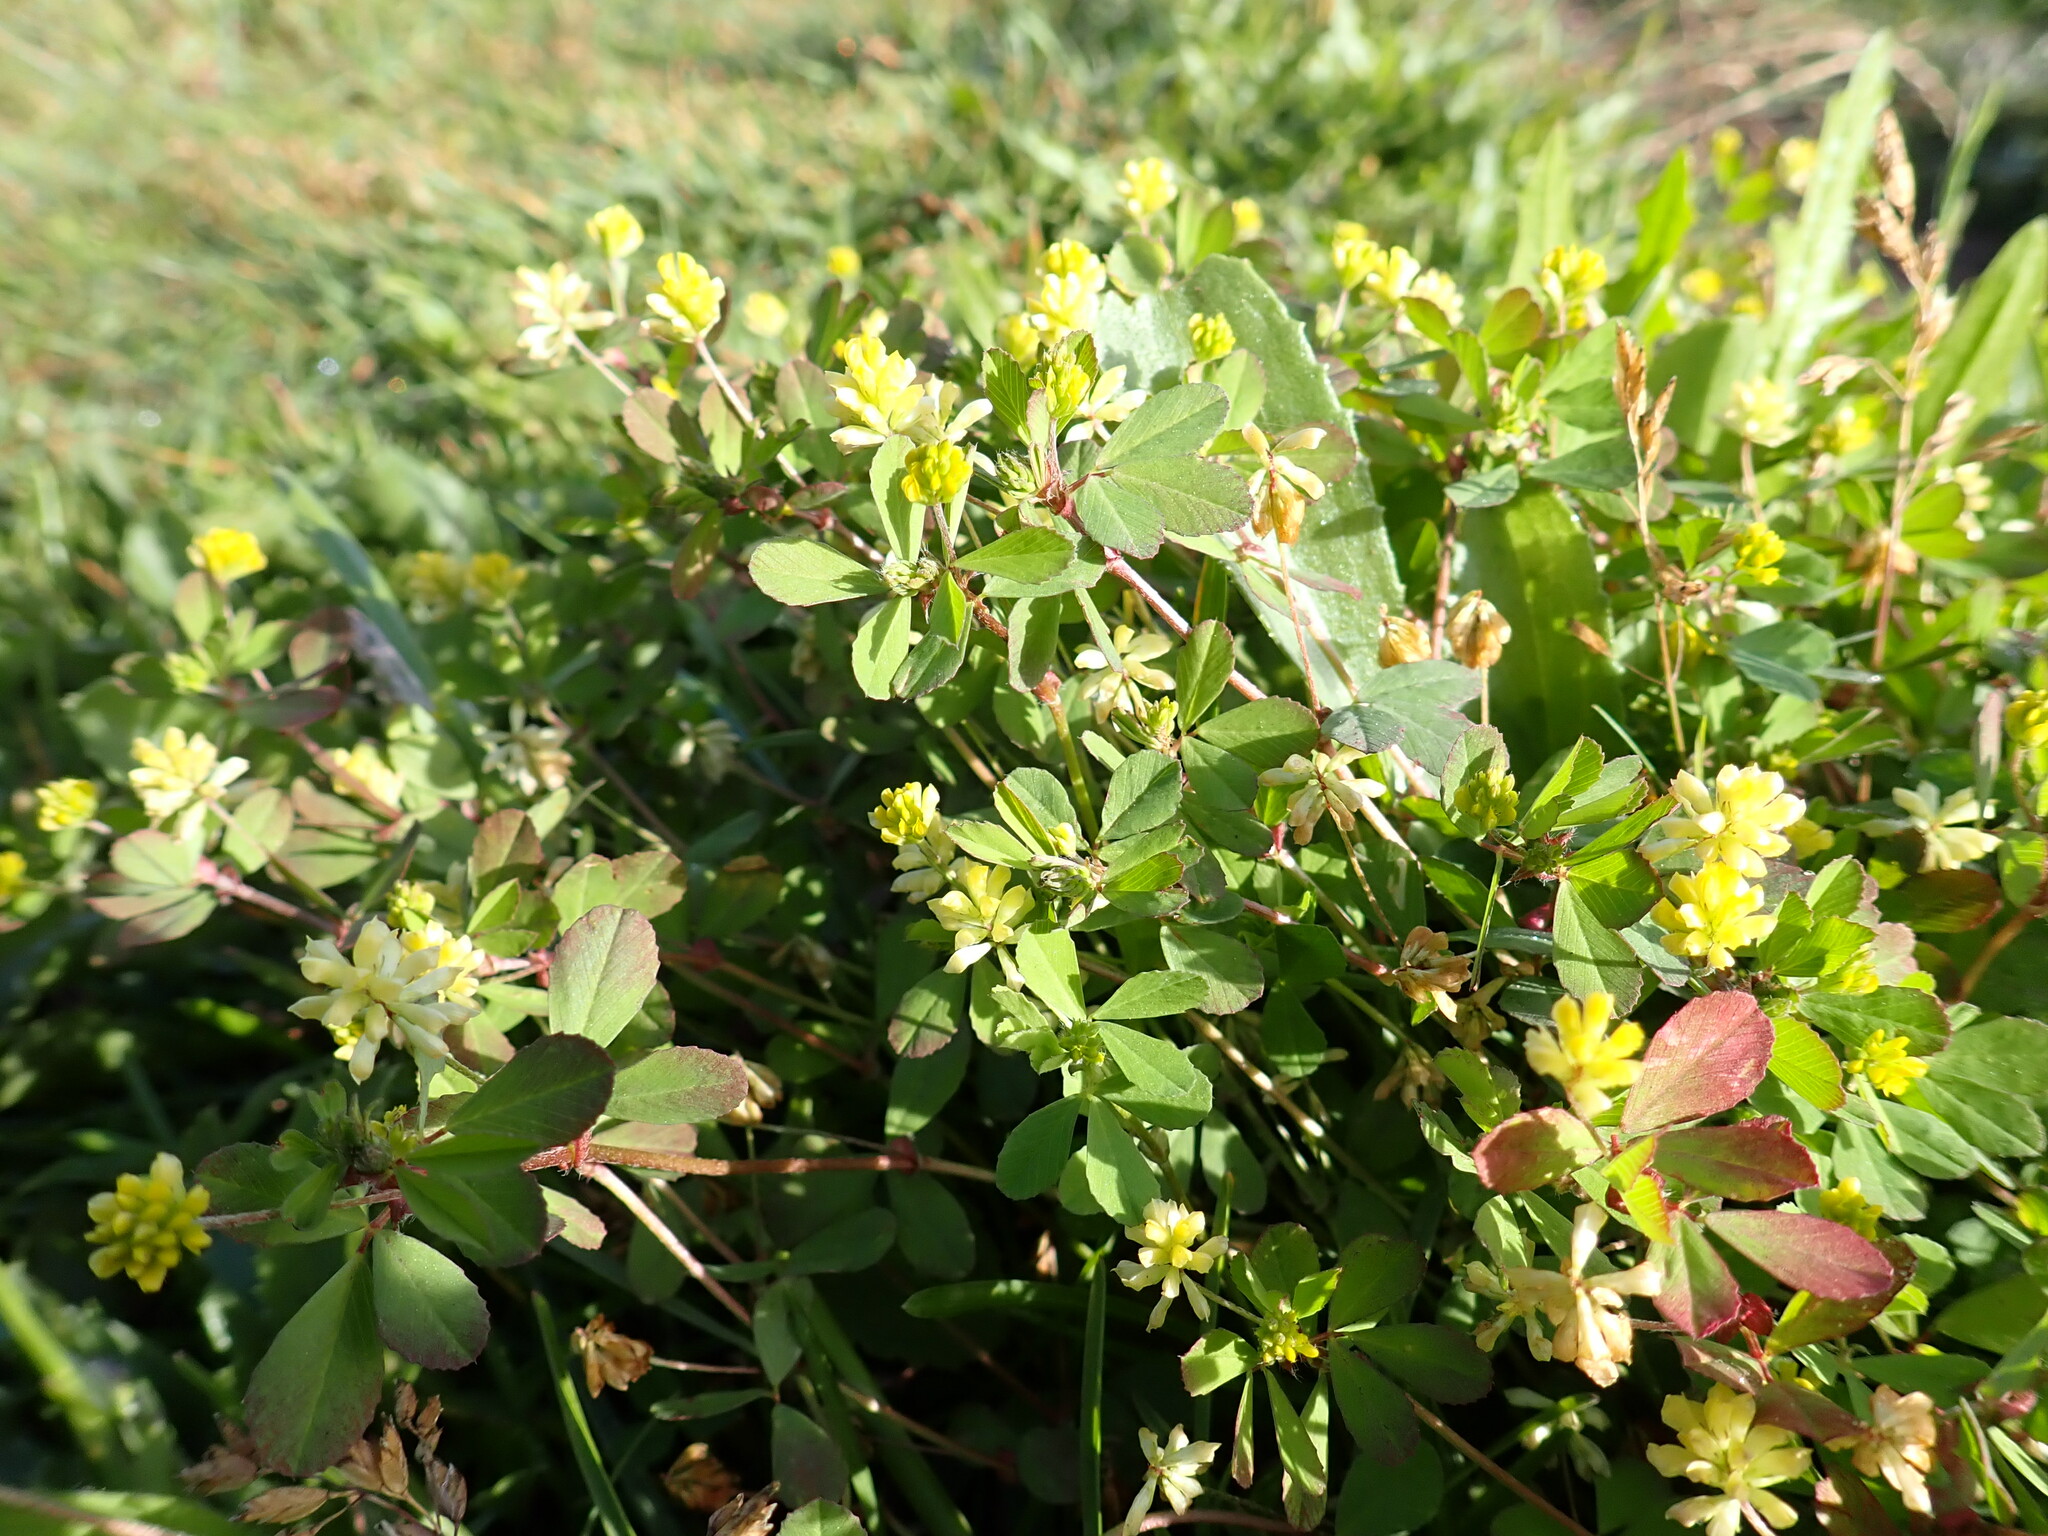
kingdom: Plantae
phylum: Tracheophyta
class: Magnoliopsida
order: Fabales
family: Fabaceae
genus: Trifolium
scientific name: Trifolium dubium
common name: Suckling clover
